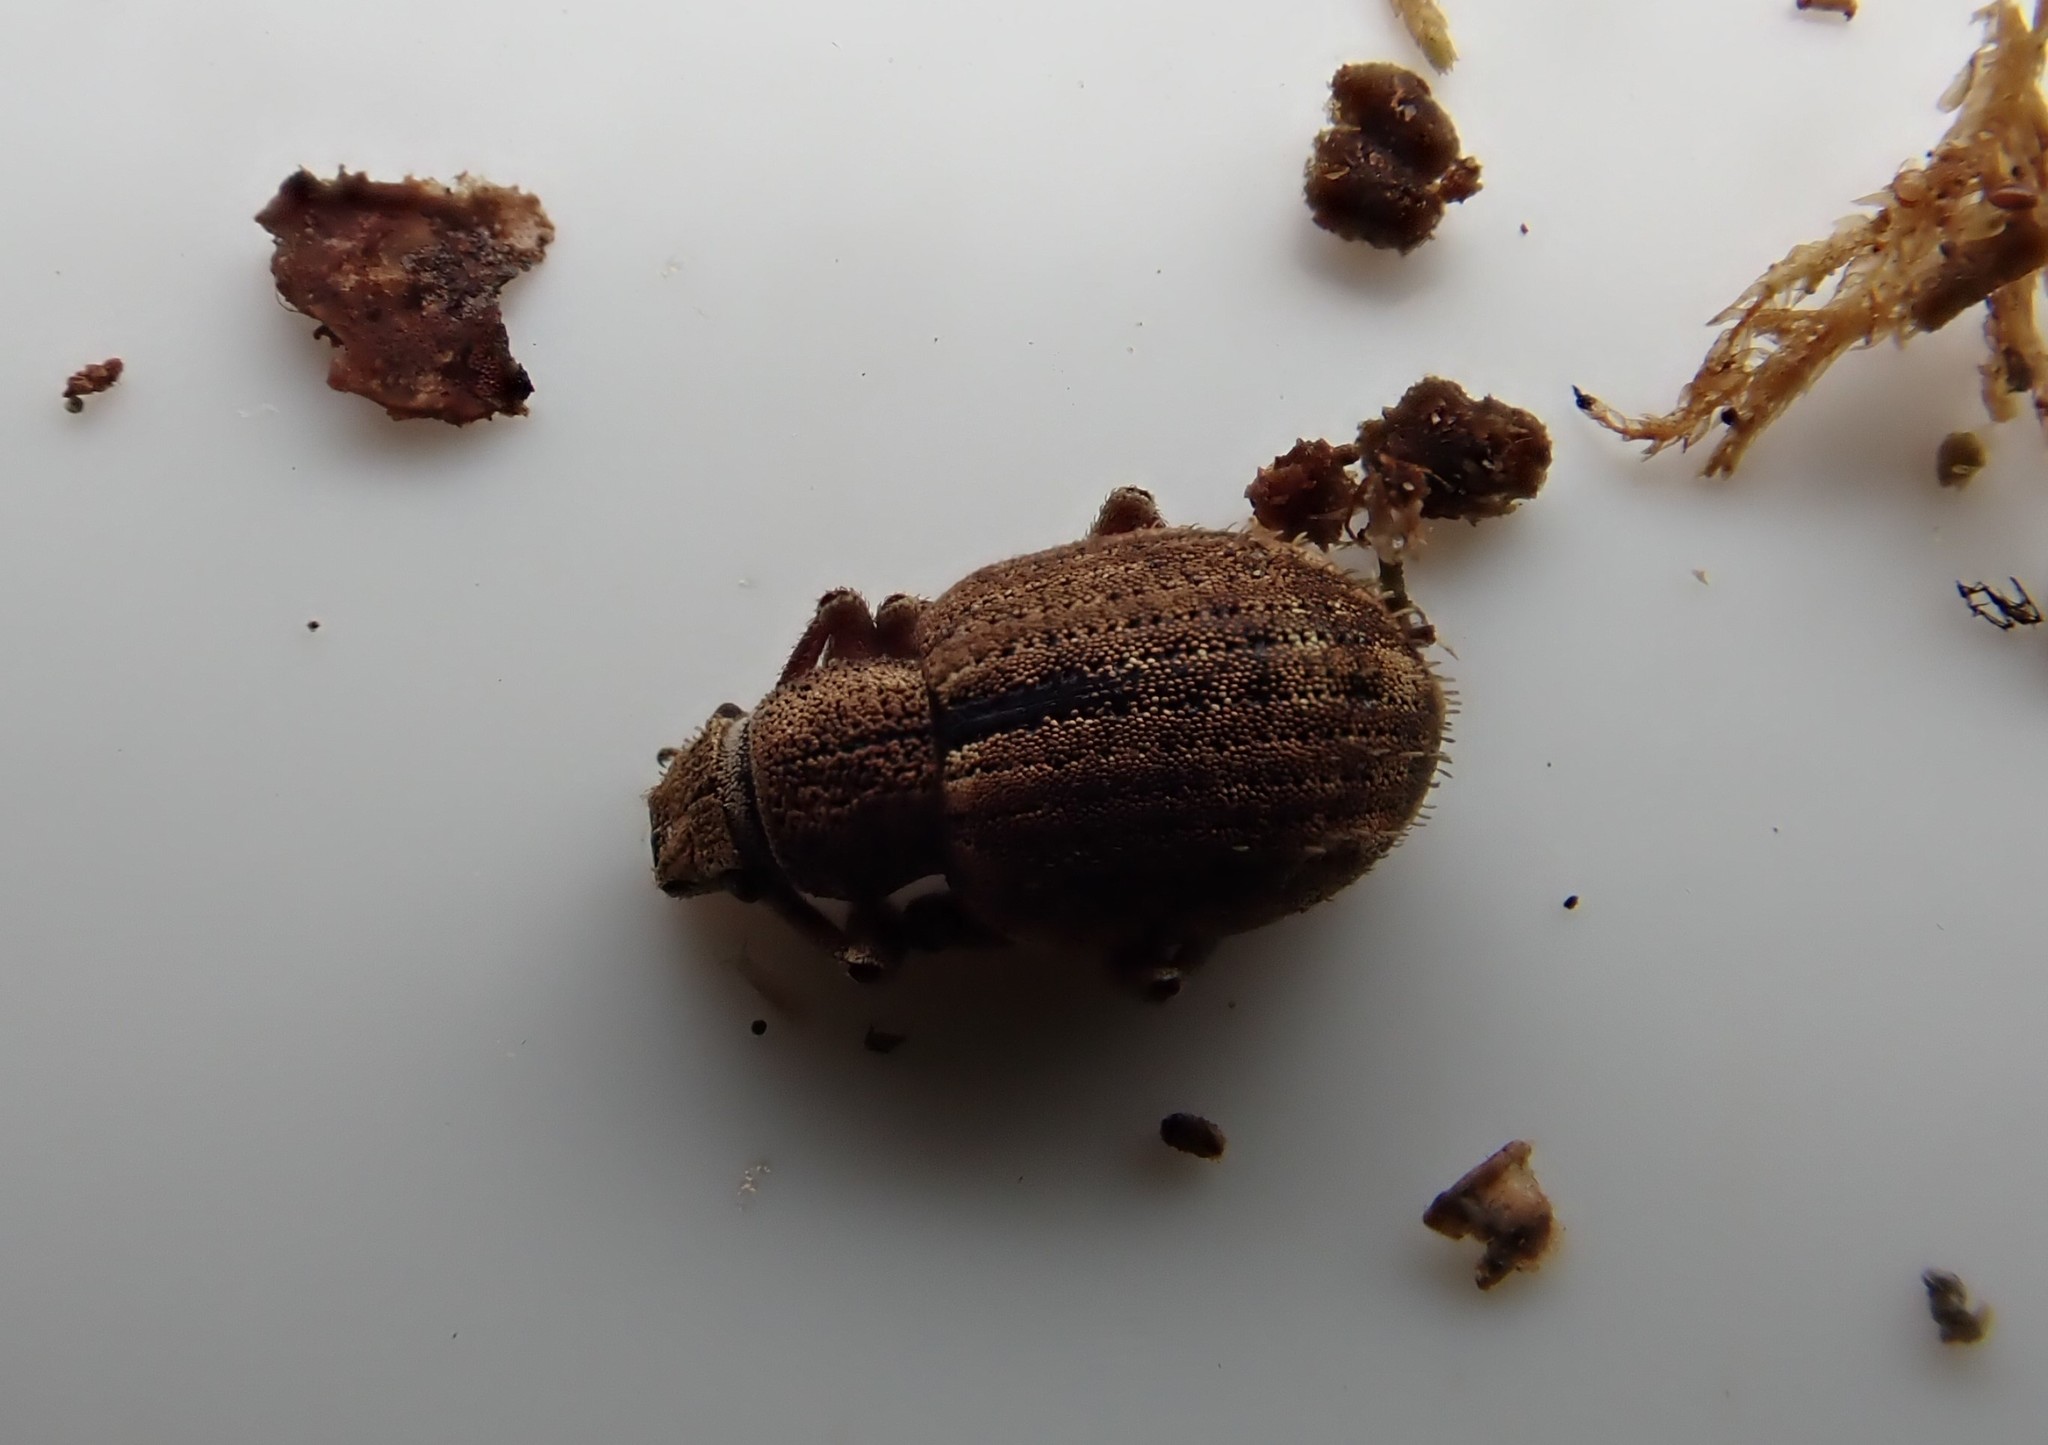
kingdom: Animalia
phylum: Arthropoda
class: Insecta
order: Coleoptera
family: Curculionidae
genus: Strophosoma
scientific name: Strophosoma melanogrammum
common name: Weevil
